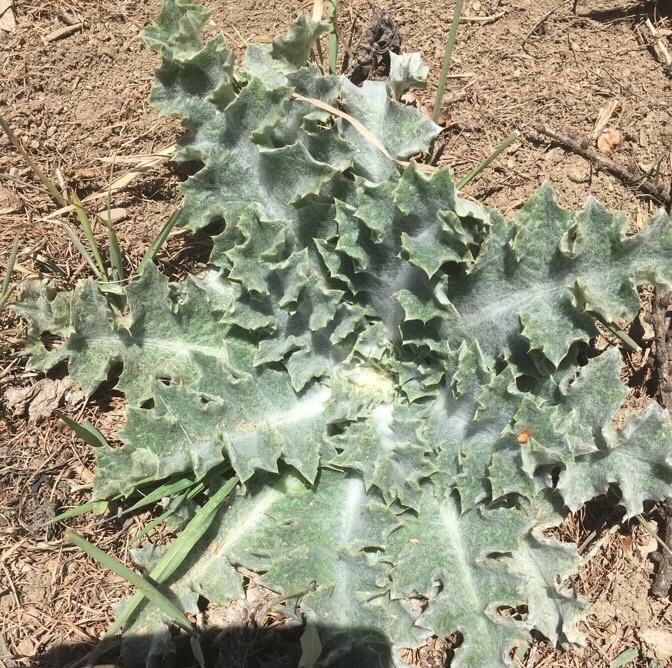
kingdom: Plantae
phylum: Tracheophyta
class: Magnoliopsida
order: Asterales
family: Asteraceae
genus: Onopordum
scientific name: Onopordum acanthium
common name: Scotch thistle
